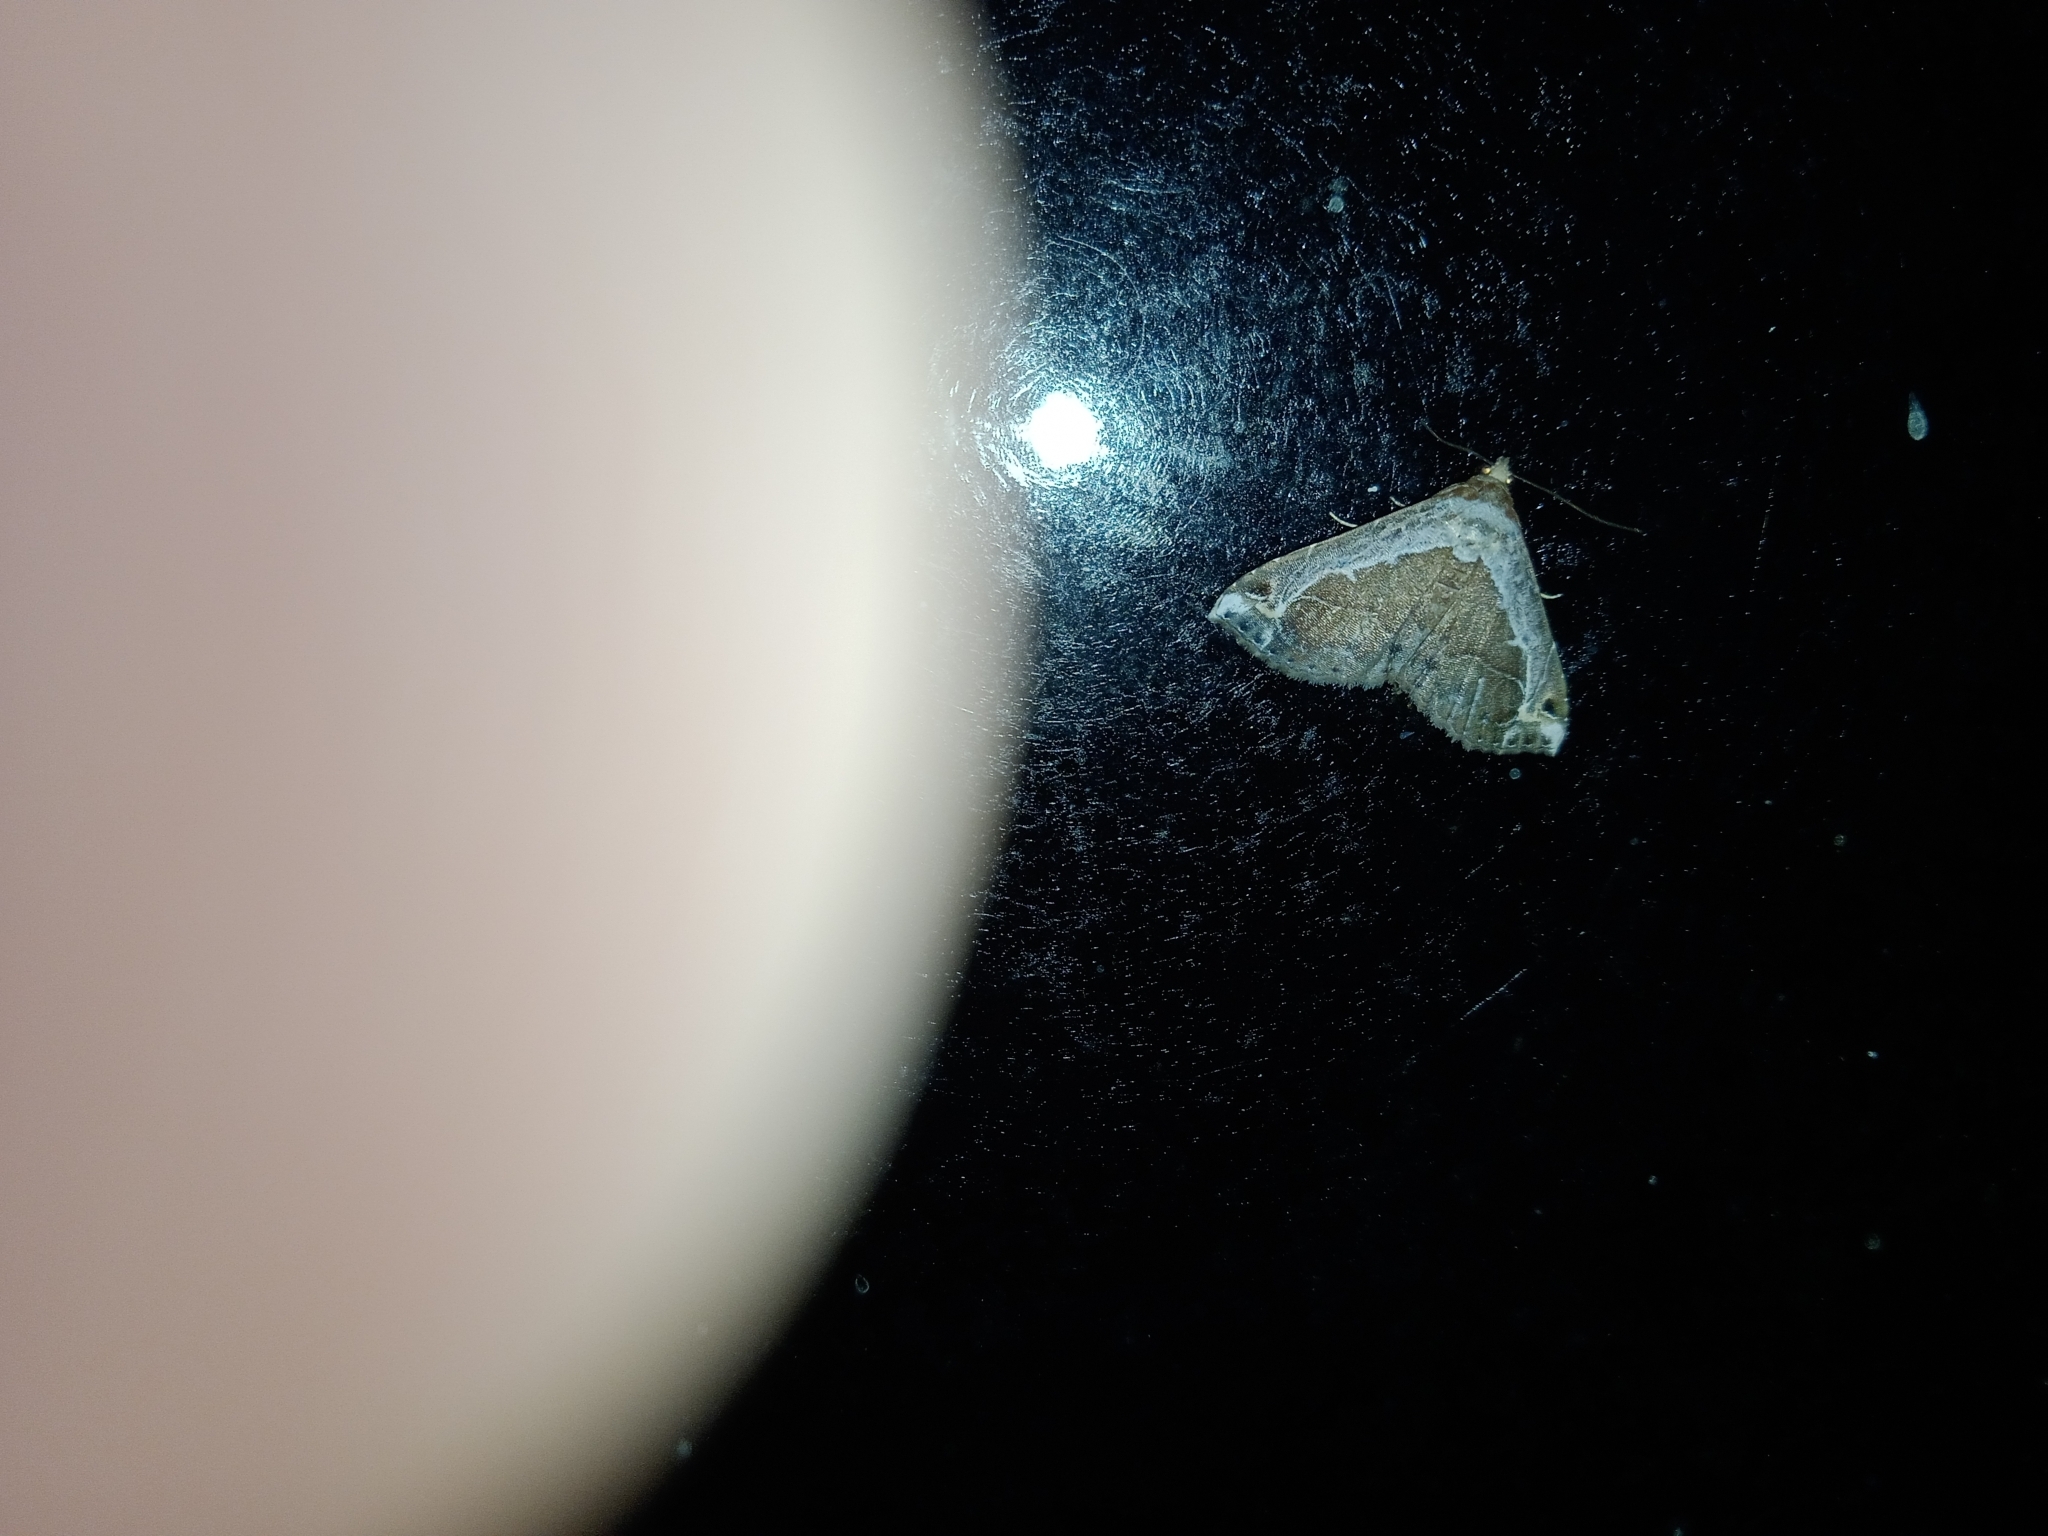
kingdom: Animalia
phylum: Arthropoda
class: Insecta
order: Lepidoptera
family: Erebidae
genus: Zurobata
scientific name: Zurobata vacillans
